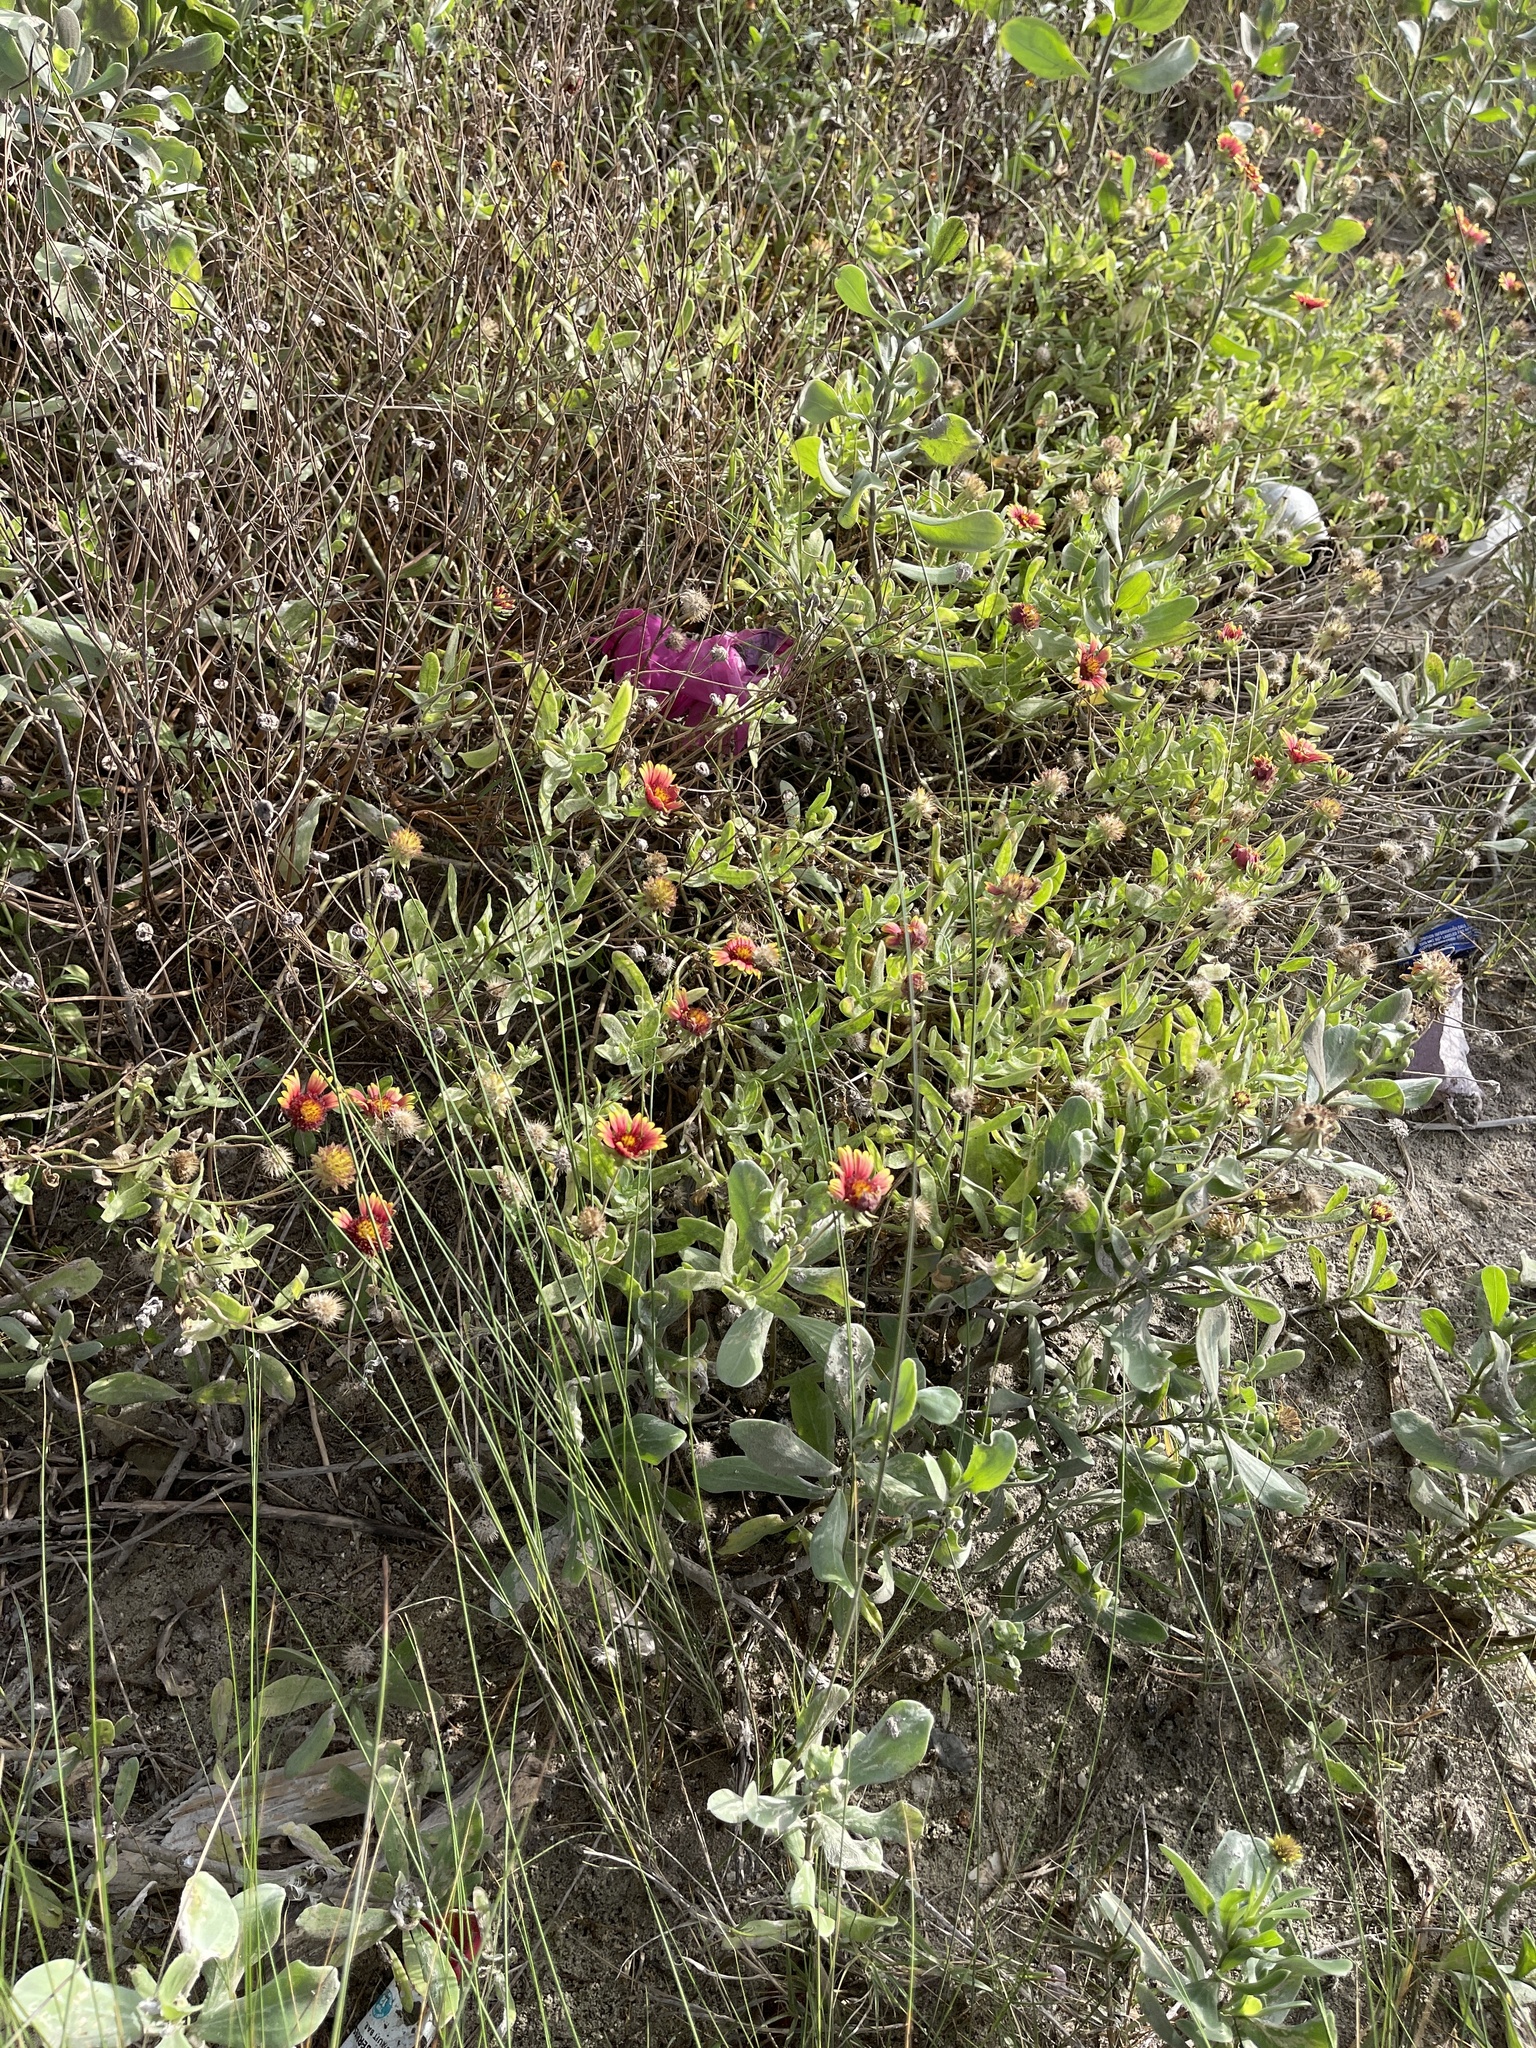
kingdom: Plantae
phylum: Tracheophyta
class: Magnoliopsida
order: Asterales
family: Asteraceae
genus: Gaillardia
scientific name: Gaillardia pulchella
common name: Firewheel
